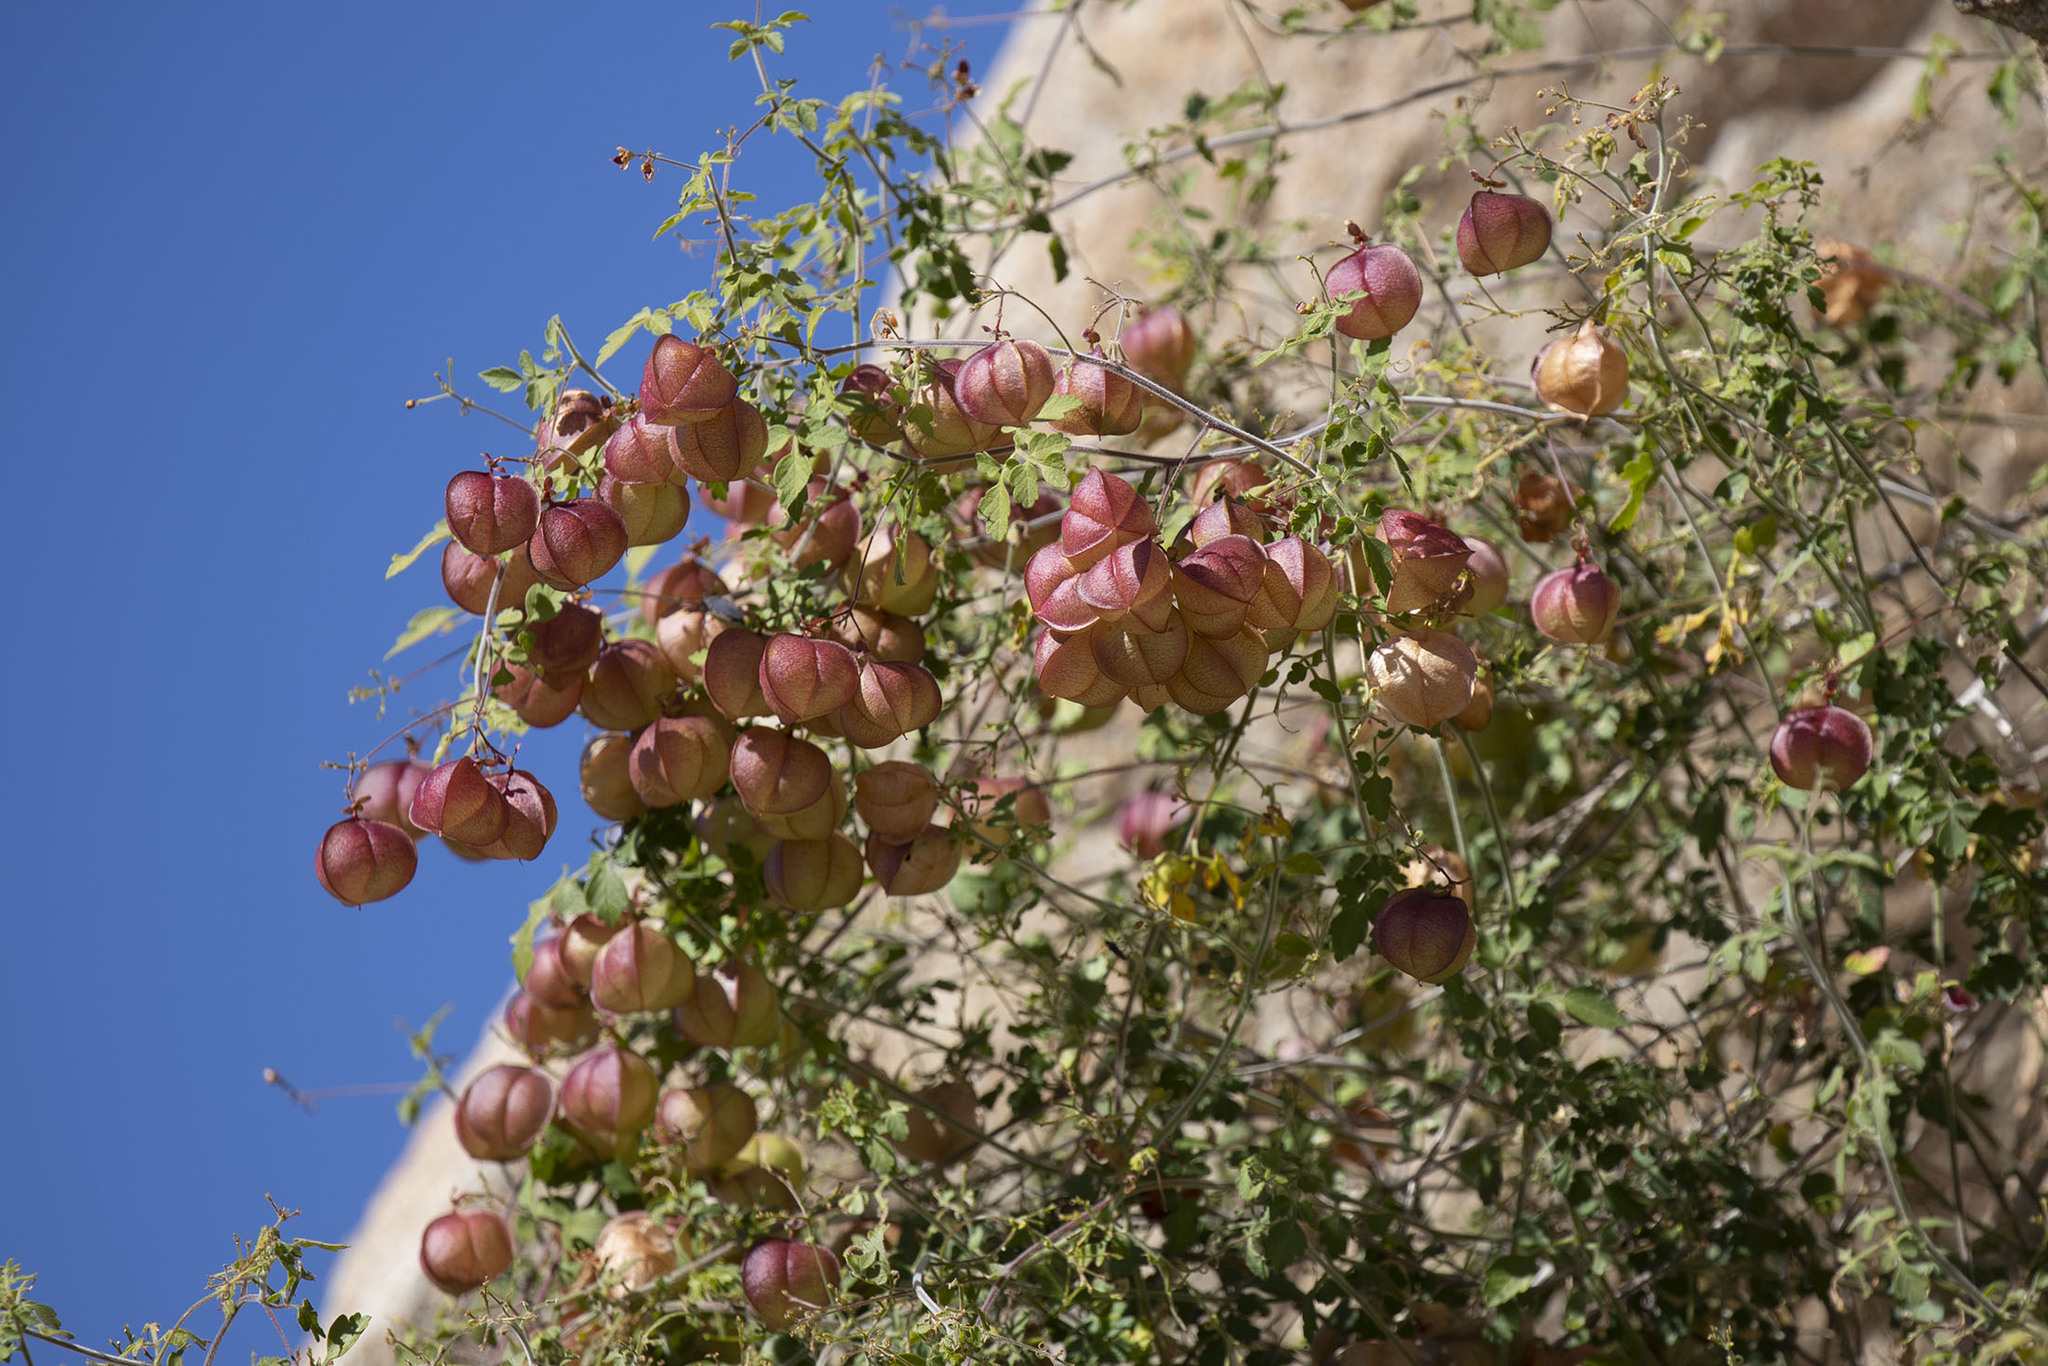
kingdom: Plantae
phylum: Tracheophyta
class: Magnoliopsida
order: Sapindales
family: Sapindaceae
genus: Cardiospermum
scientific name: Cardiospermum corindum
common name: Faux persil
